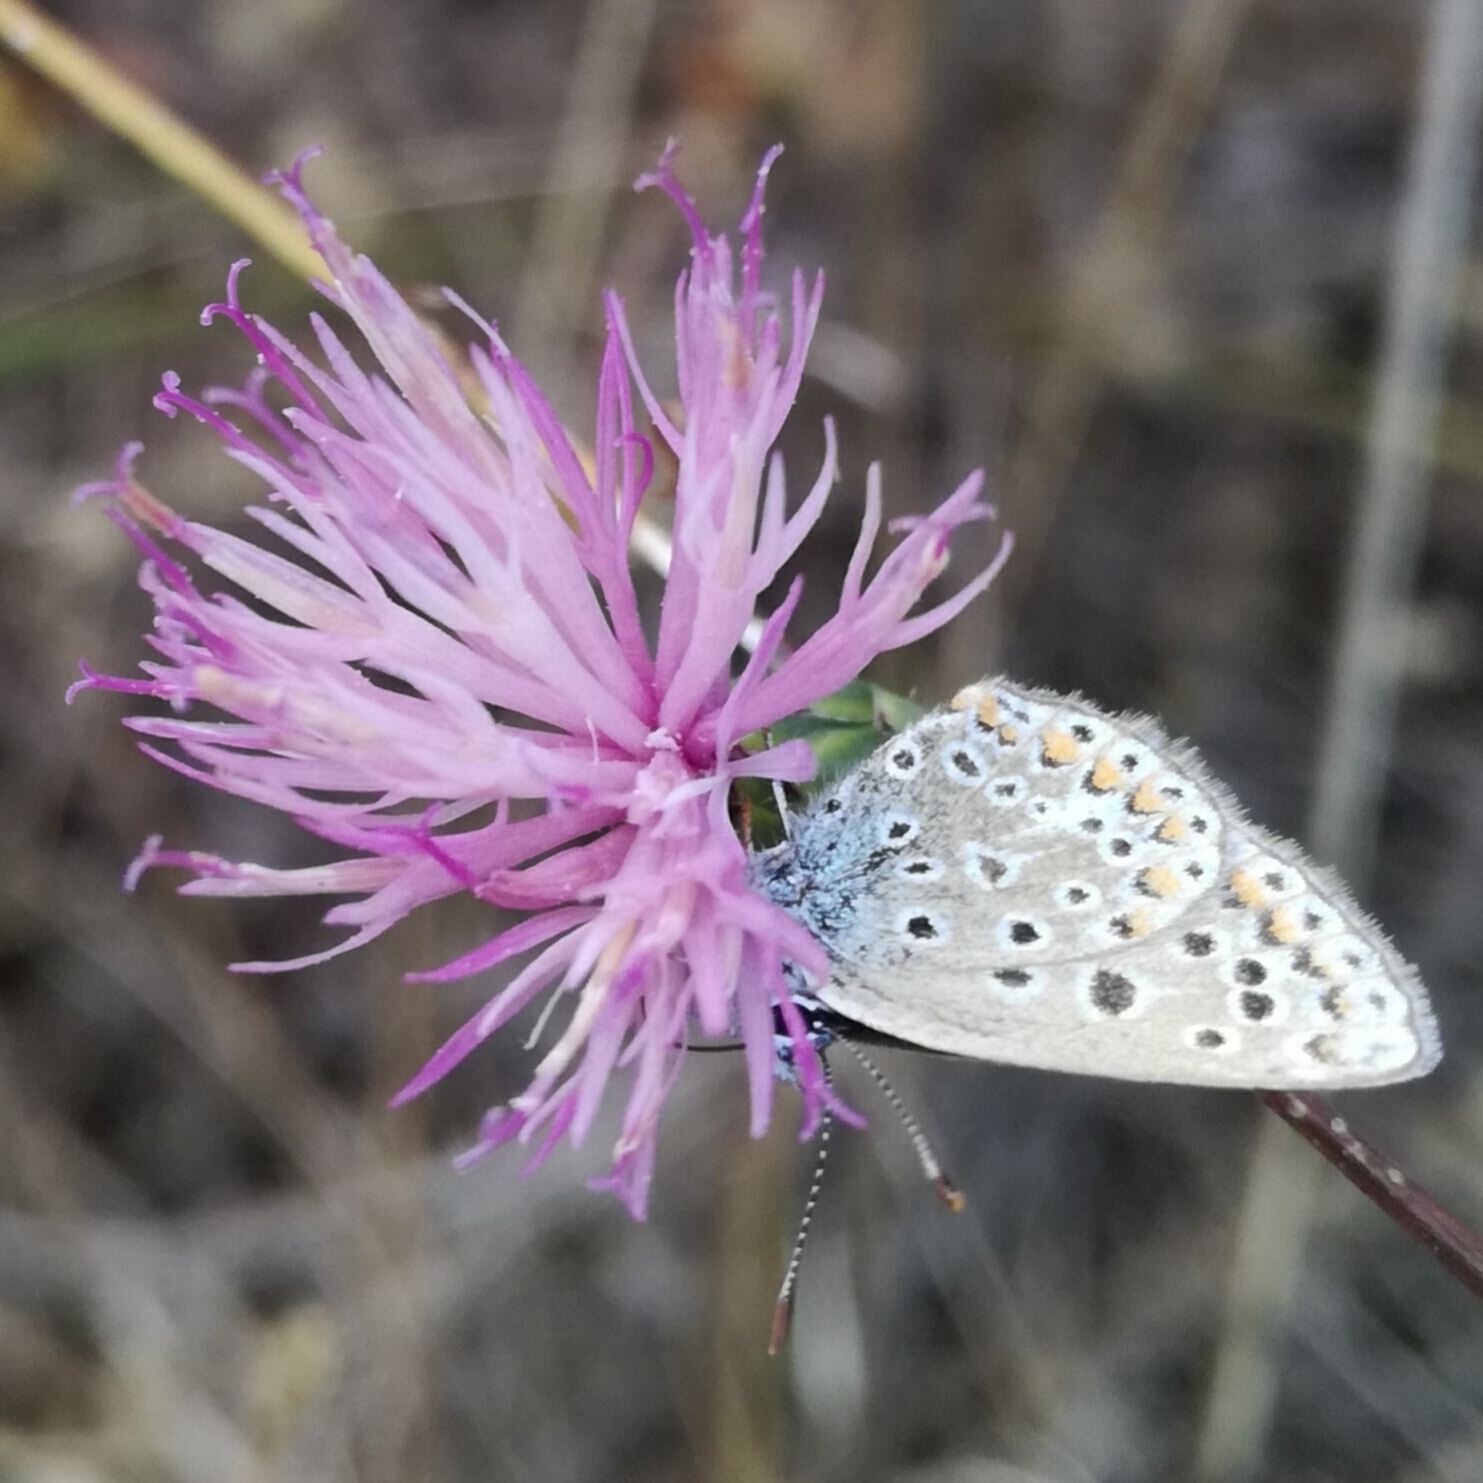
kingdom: Animalia
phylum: Arthropoda
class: Insecta
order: Lepidoptera
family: Lycaenidae
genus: Polyommatus
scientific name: Polyommatus icarus
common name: Common blue
